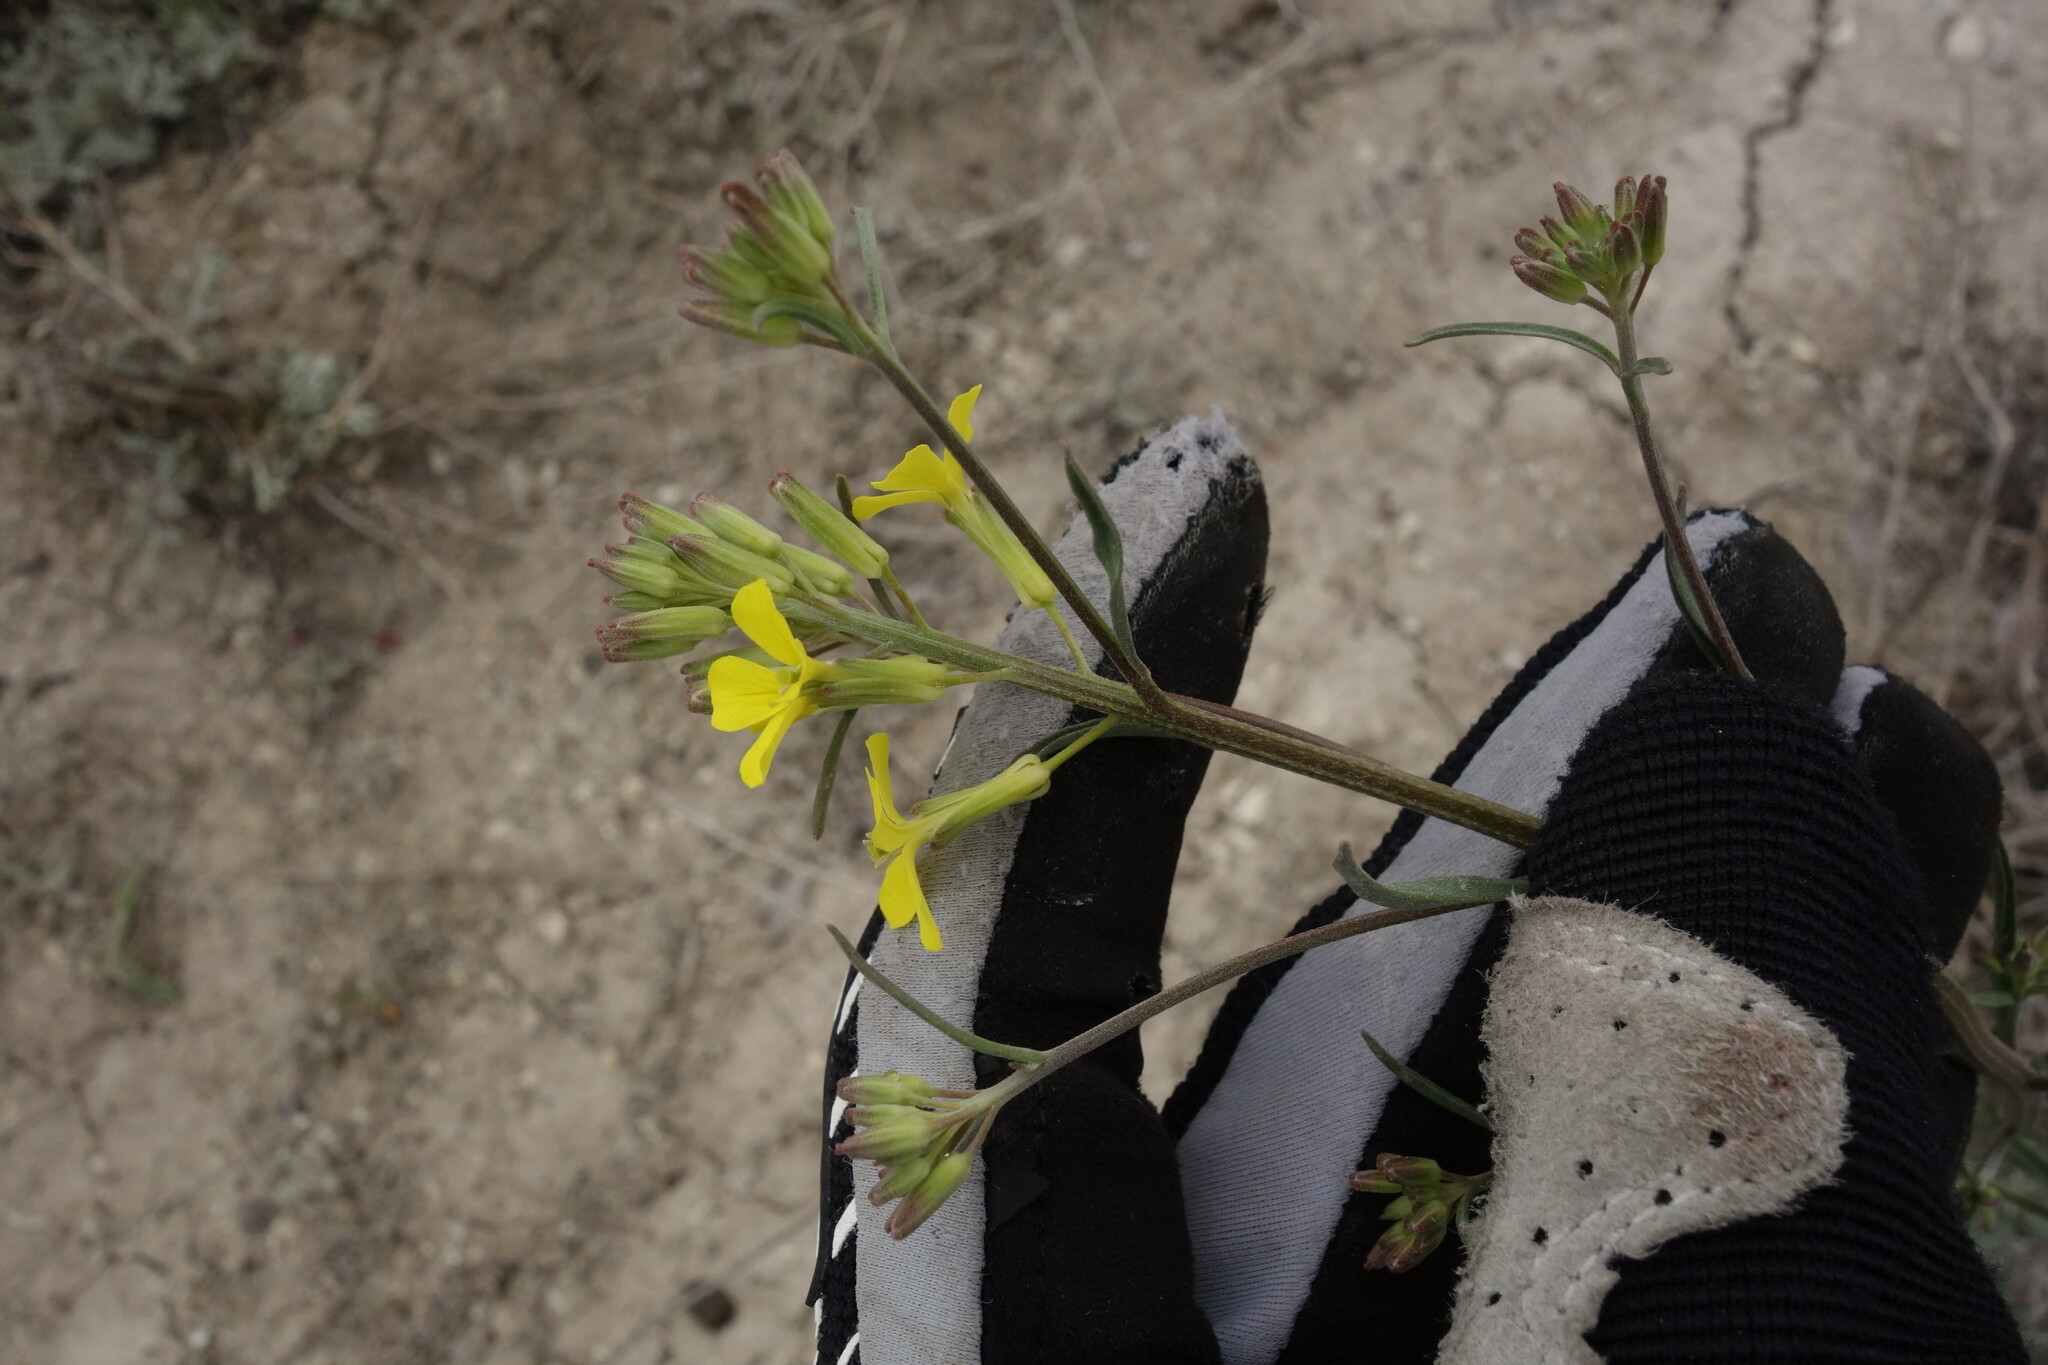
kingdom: Plantae
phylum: Tracheophyta
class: Magnoliopsida
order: Brassicales
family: Brassicaceae
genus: Erysimum
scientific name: Erysimum diffusum
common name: Diffuse wallflower
